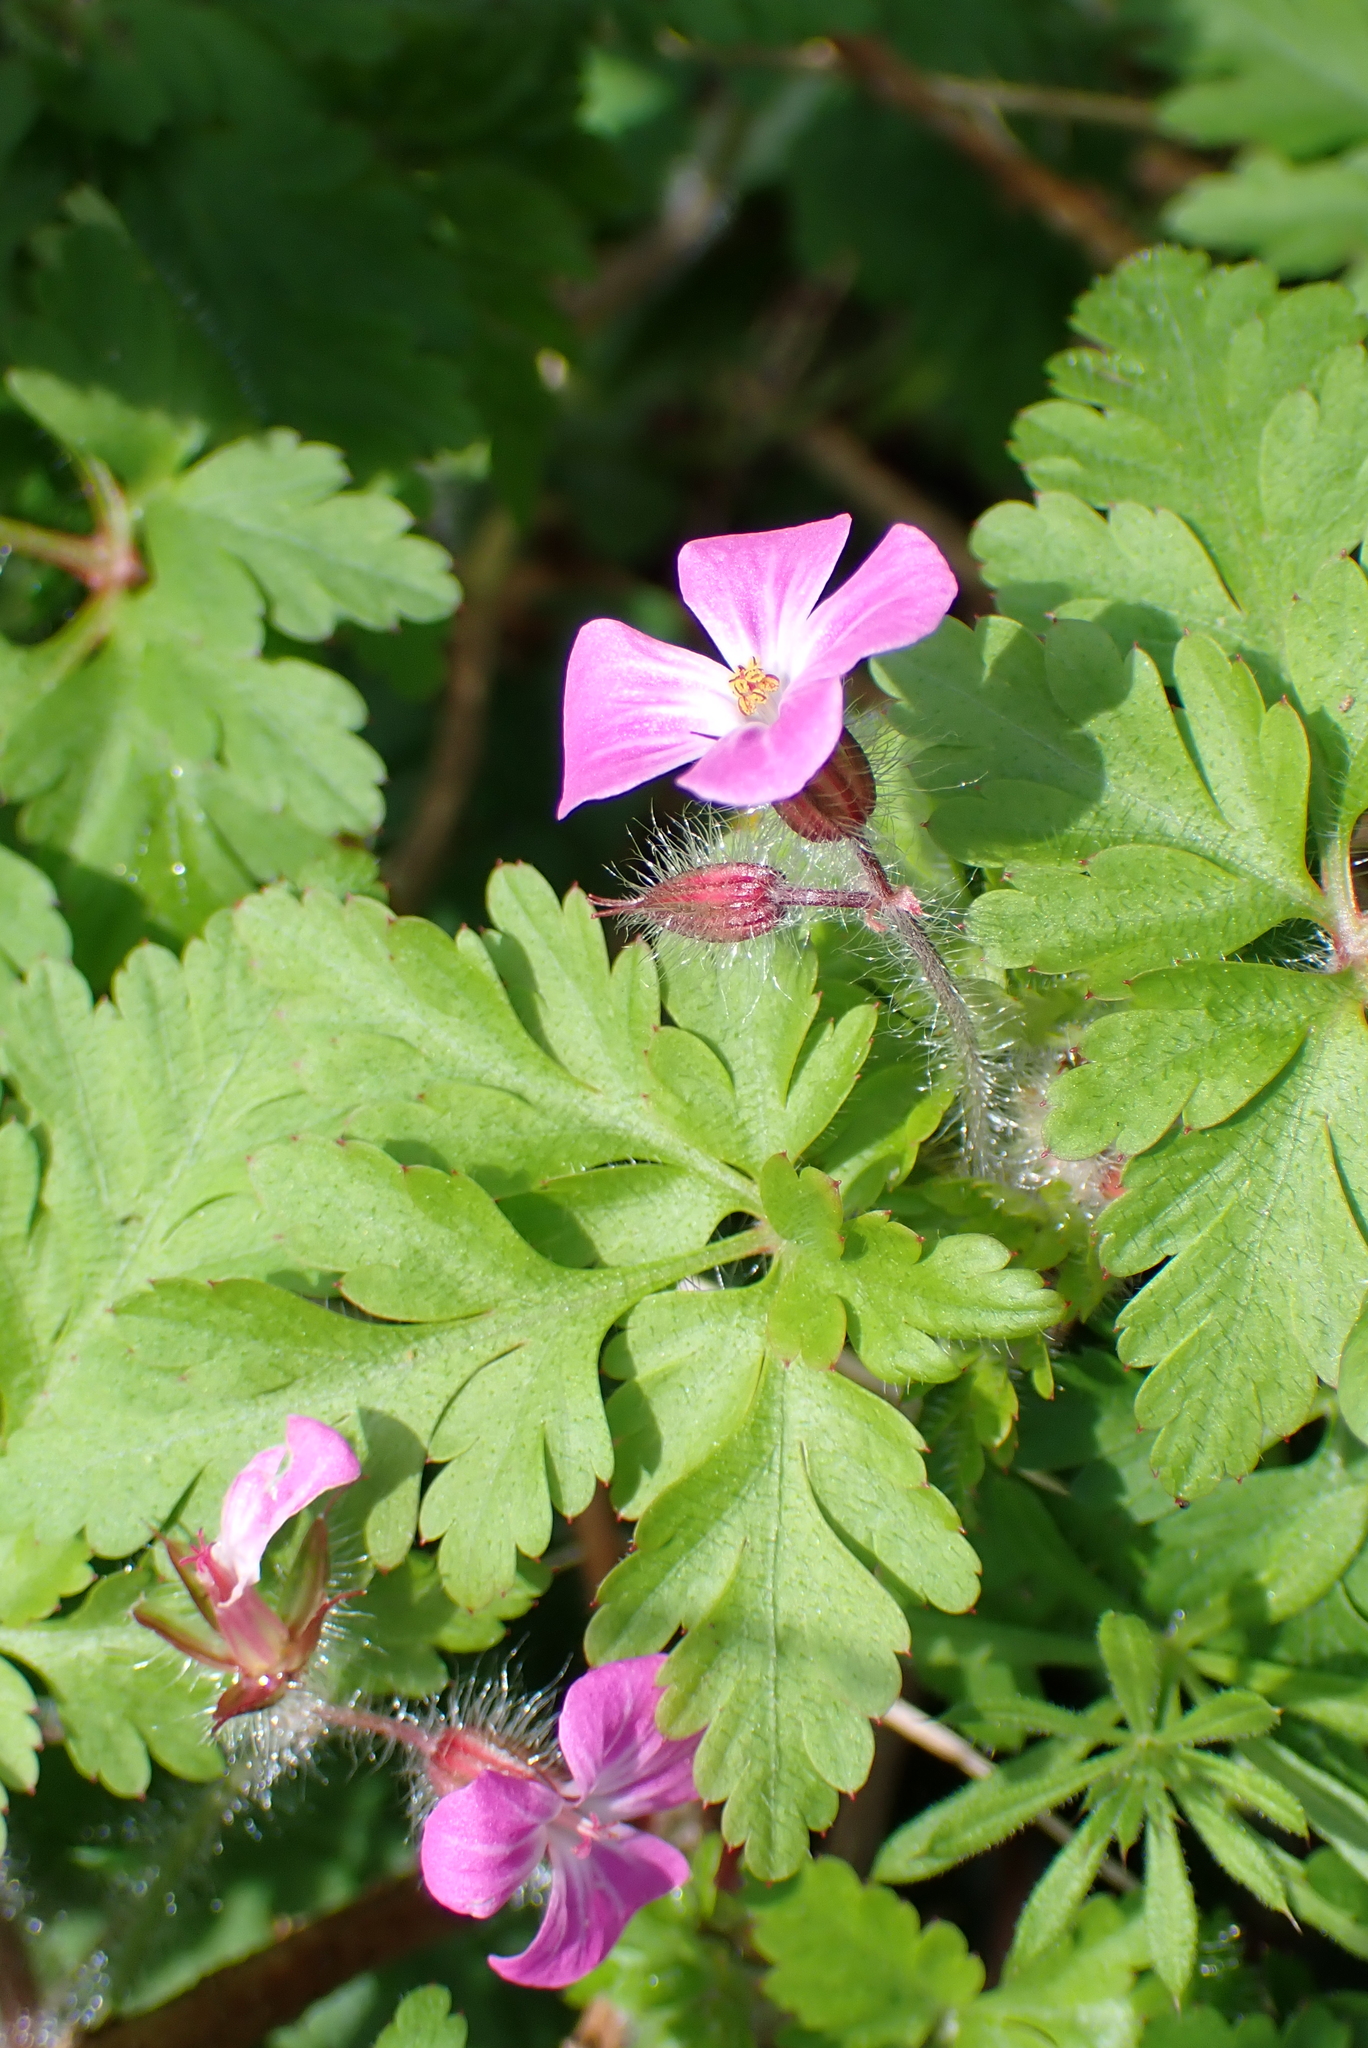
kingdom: Plantae
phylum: Tracheophyta
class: Magnoliopsida
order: Geraniales
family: Geraniaceae
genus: Geranium
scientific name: Geranium robertianum
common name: Herb-robert
